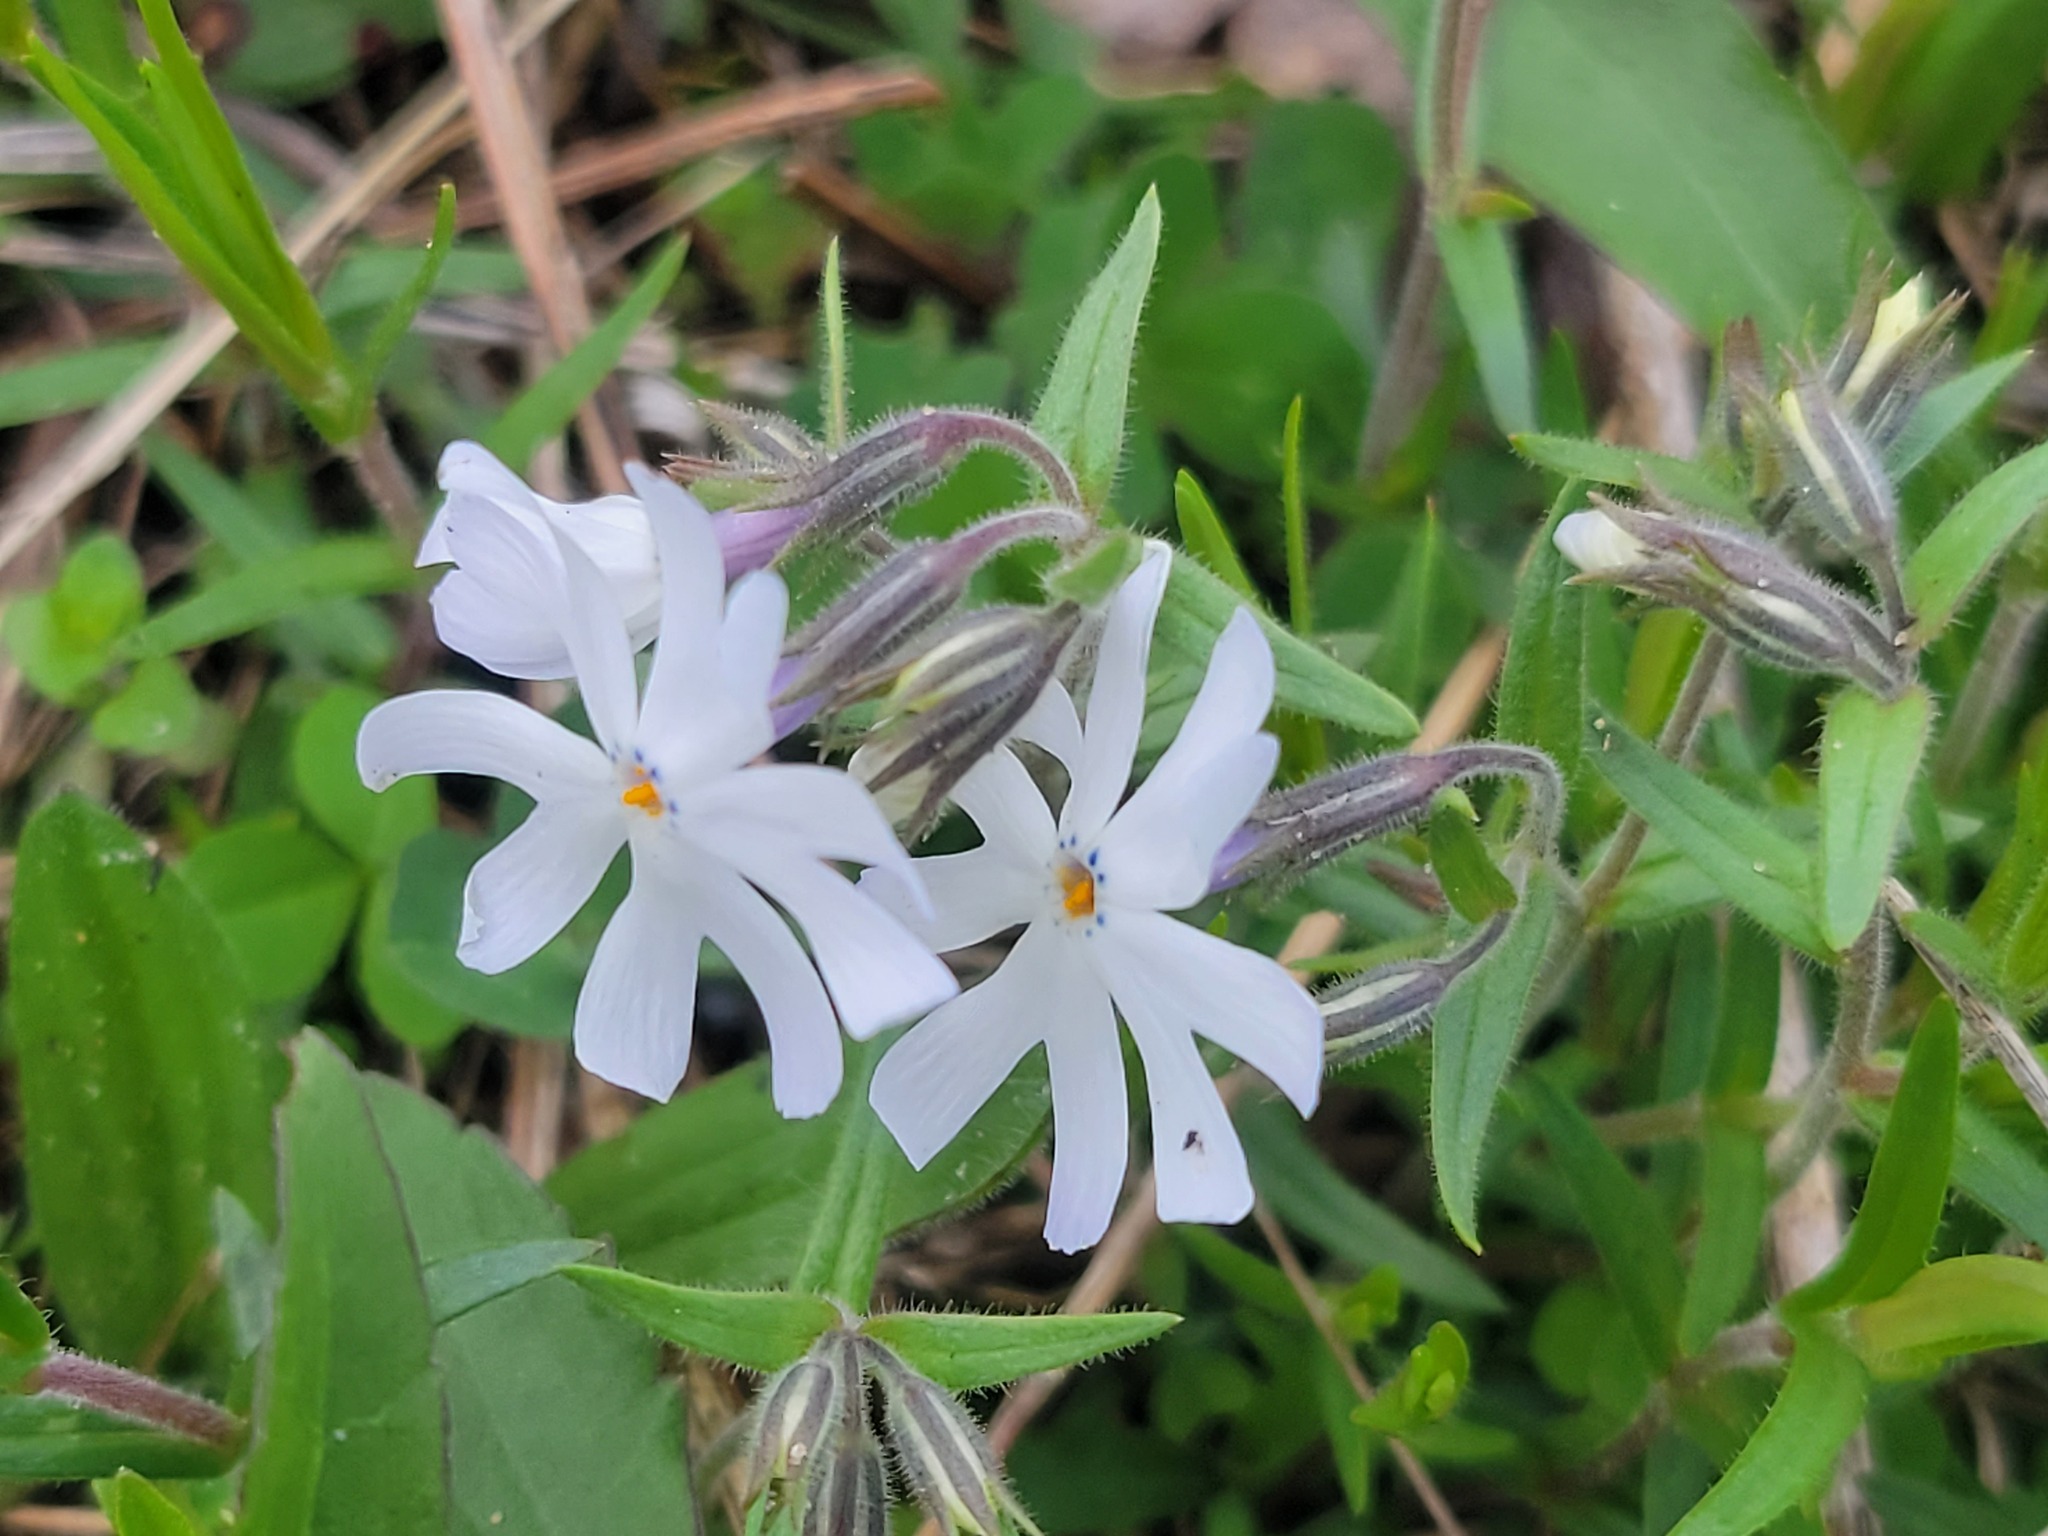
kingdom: Plantae
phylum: Tracheophyta
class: Magnoliopsida
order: Caryophyllales
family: Caryophyllaceae
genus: Silene
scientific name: Silene latifolia
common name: White campion
